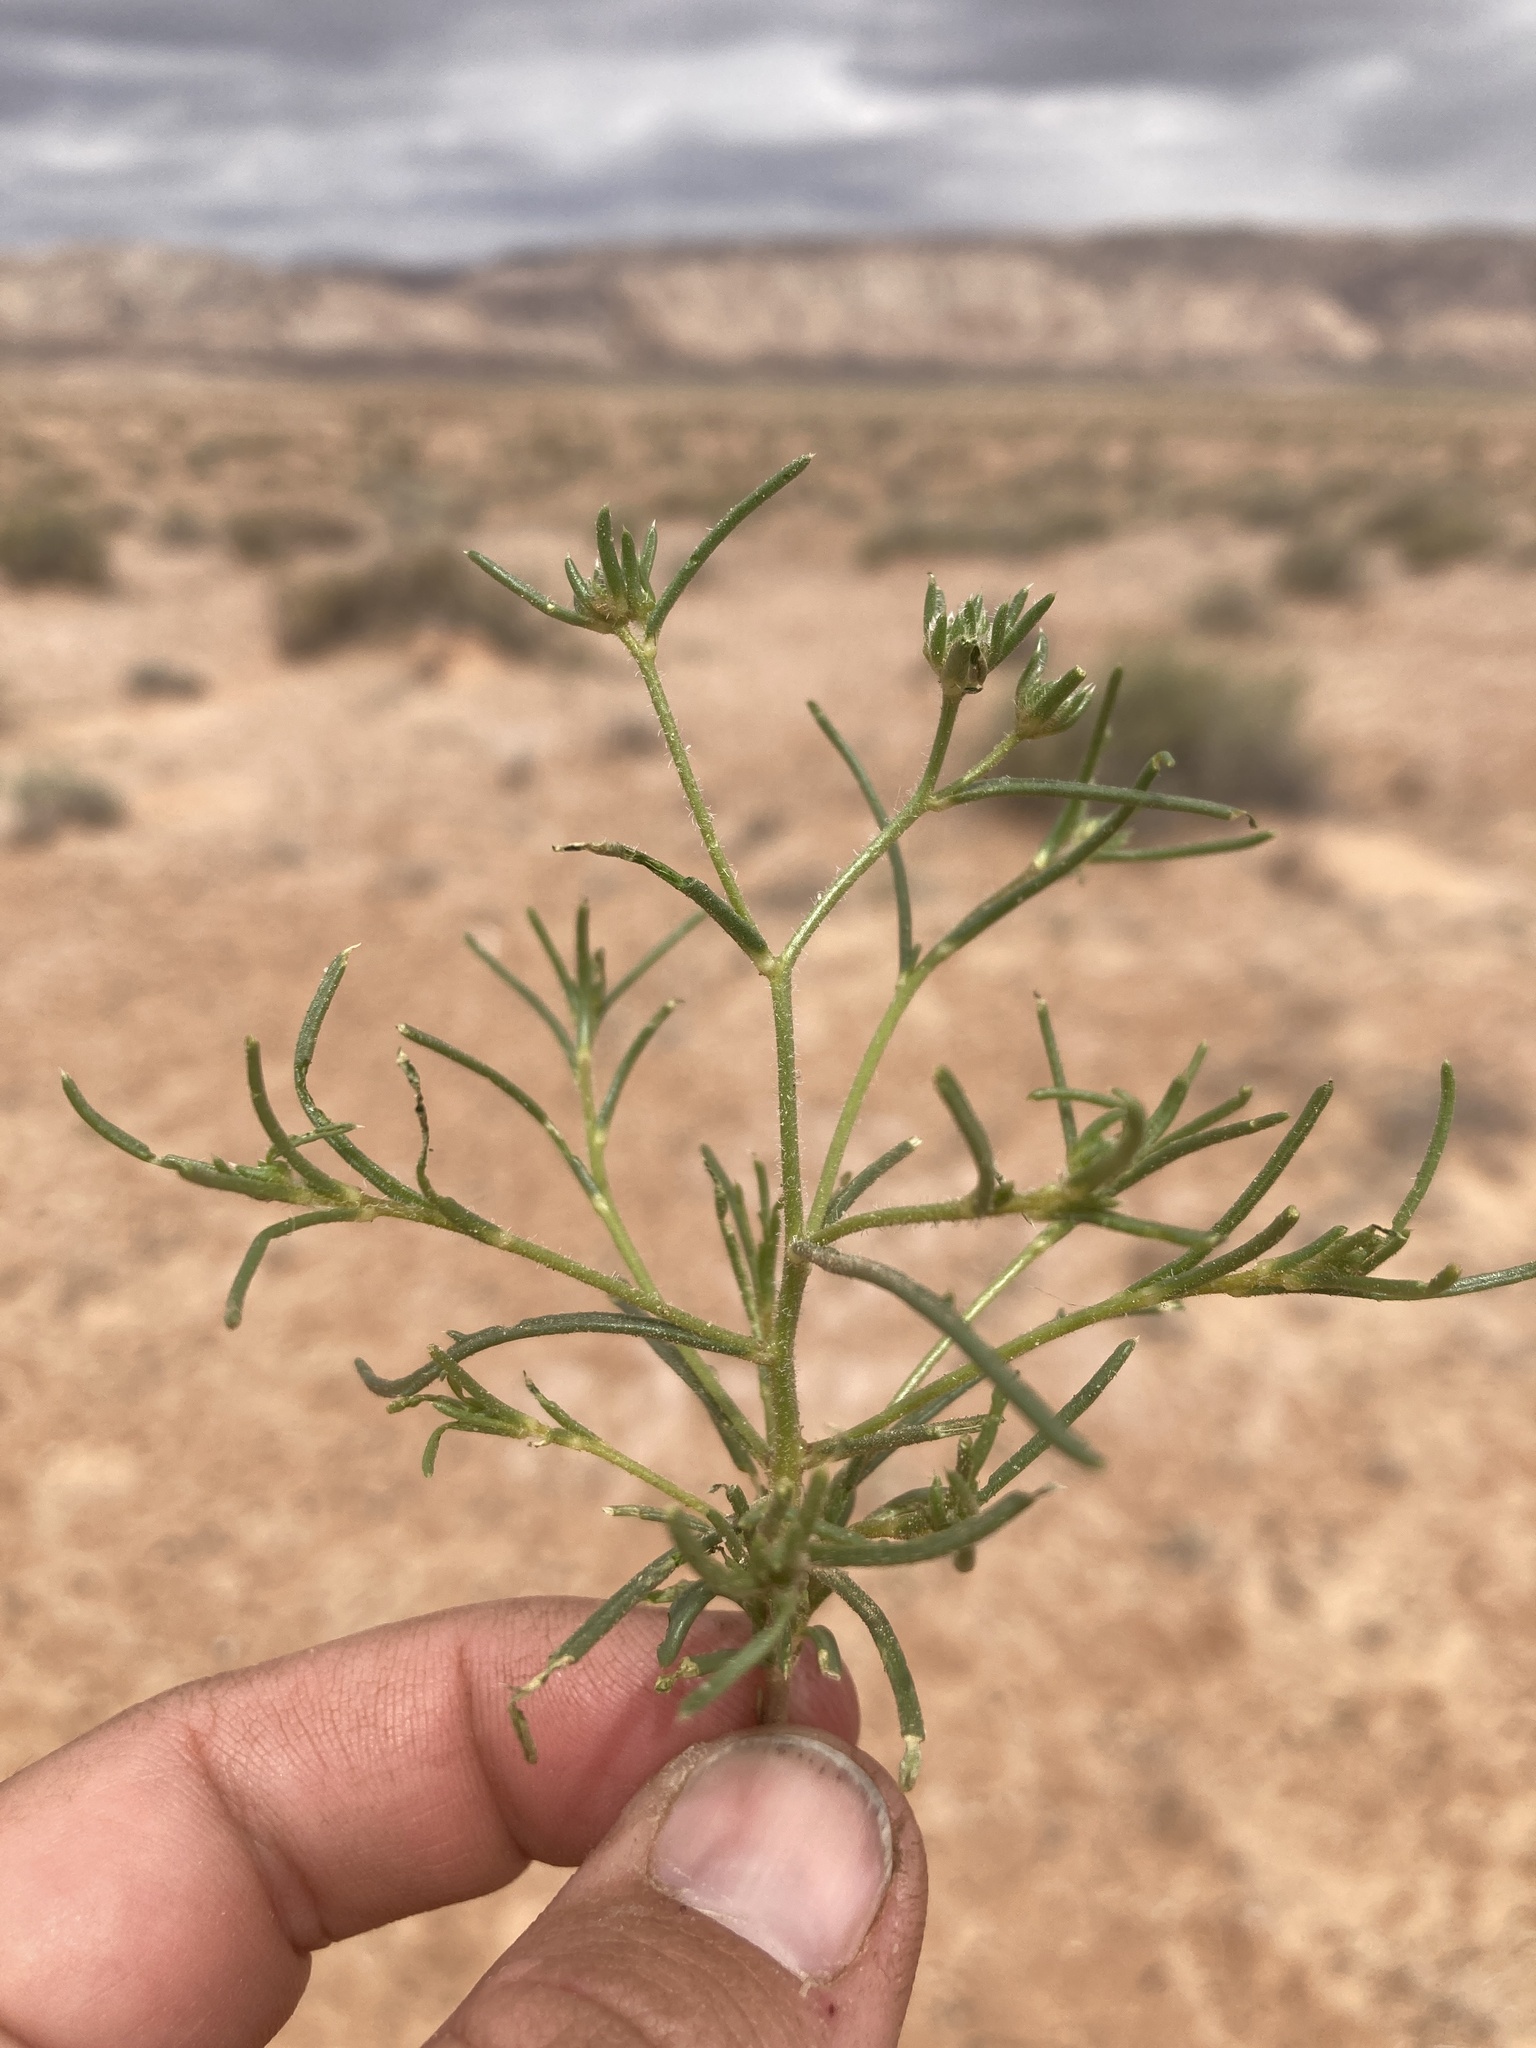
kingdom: Plantae
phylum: Tracheophyta
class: Magnoliopsida
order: Ericales
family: Polemoniaceae
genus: Ipomopsis
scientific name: Ipomopsis gunnisonii
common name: Sand-dune gilia
